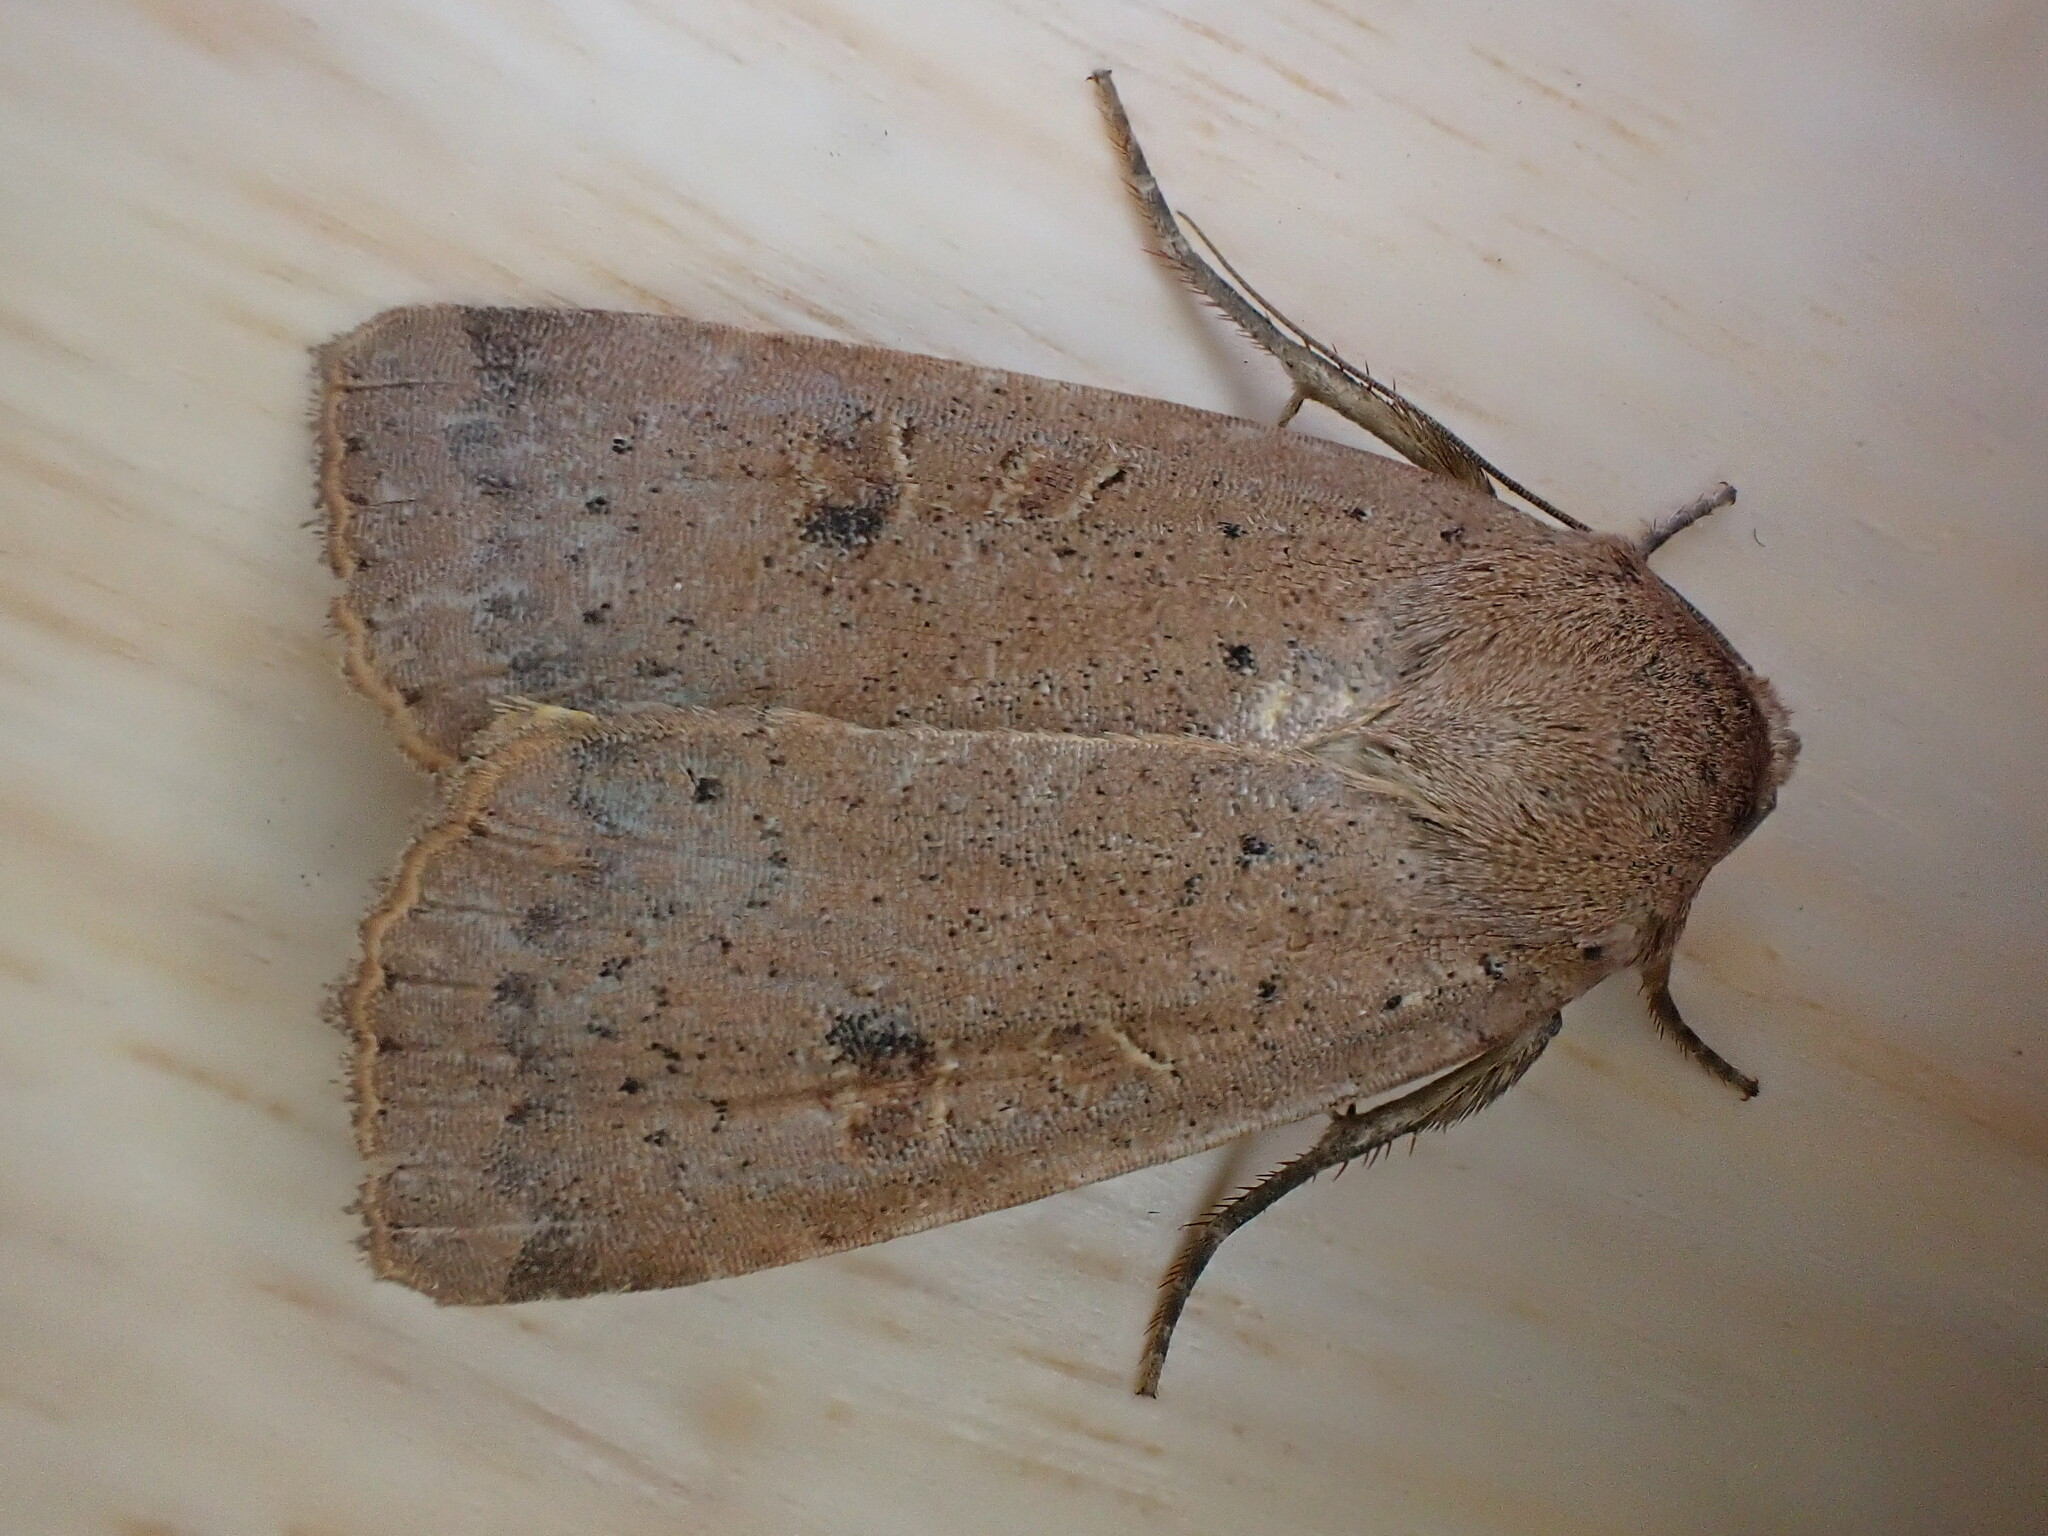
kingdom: Animalia
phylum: Arthropoda
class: Insecta
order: Lepidoptera
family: Noctuidae
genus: Noctua
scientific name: Noctua comes
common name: Lesser yellow underwing
